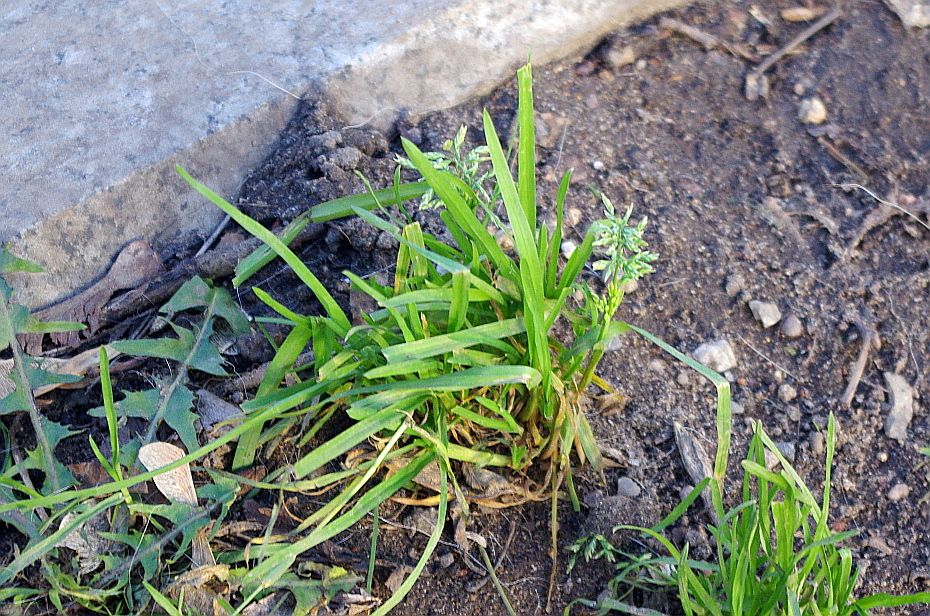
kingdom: Plantae
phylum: Tracheophyta
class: Liliopsida
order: Poales
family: Poaceae
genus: Poa
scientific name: Poa annua
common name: Annual bluegrass
